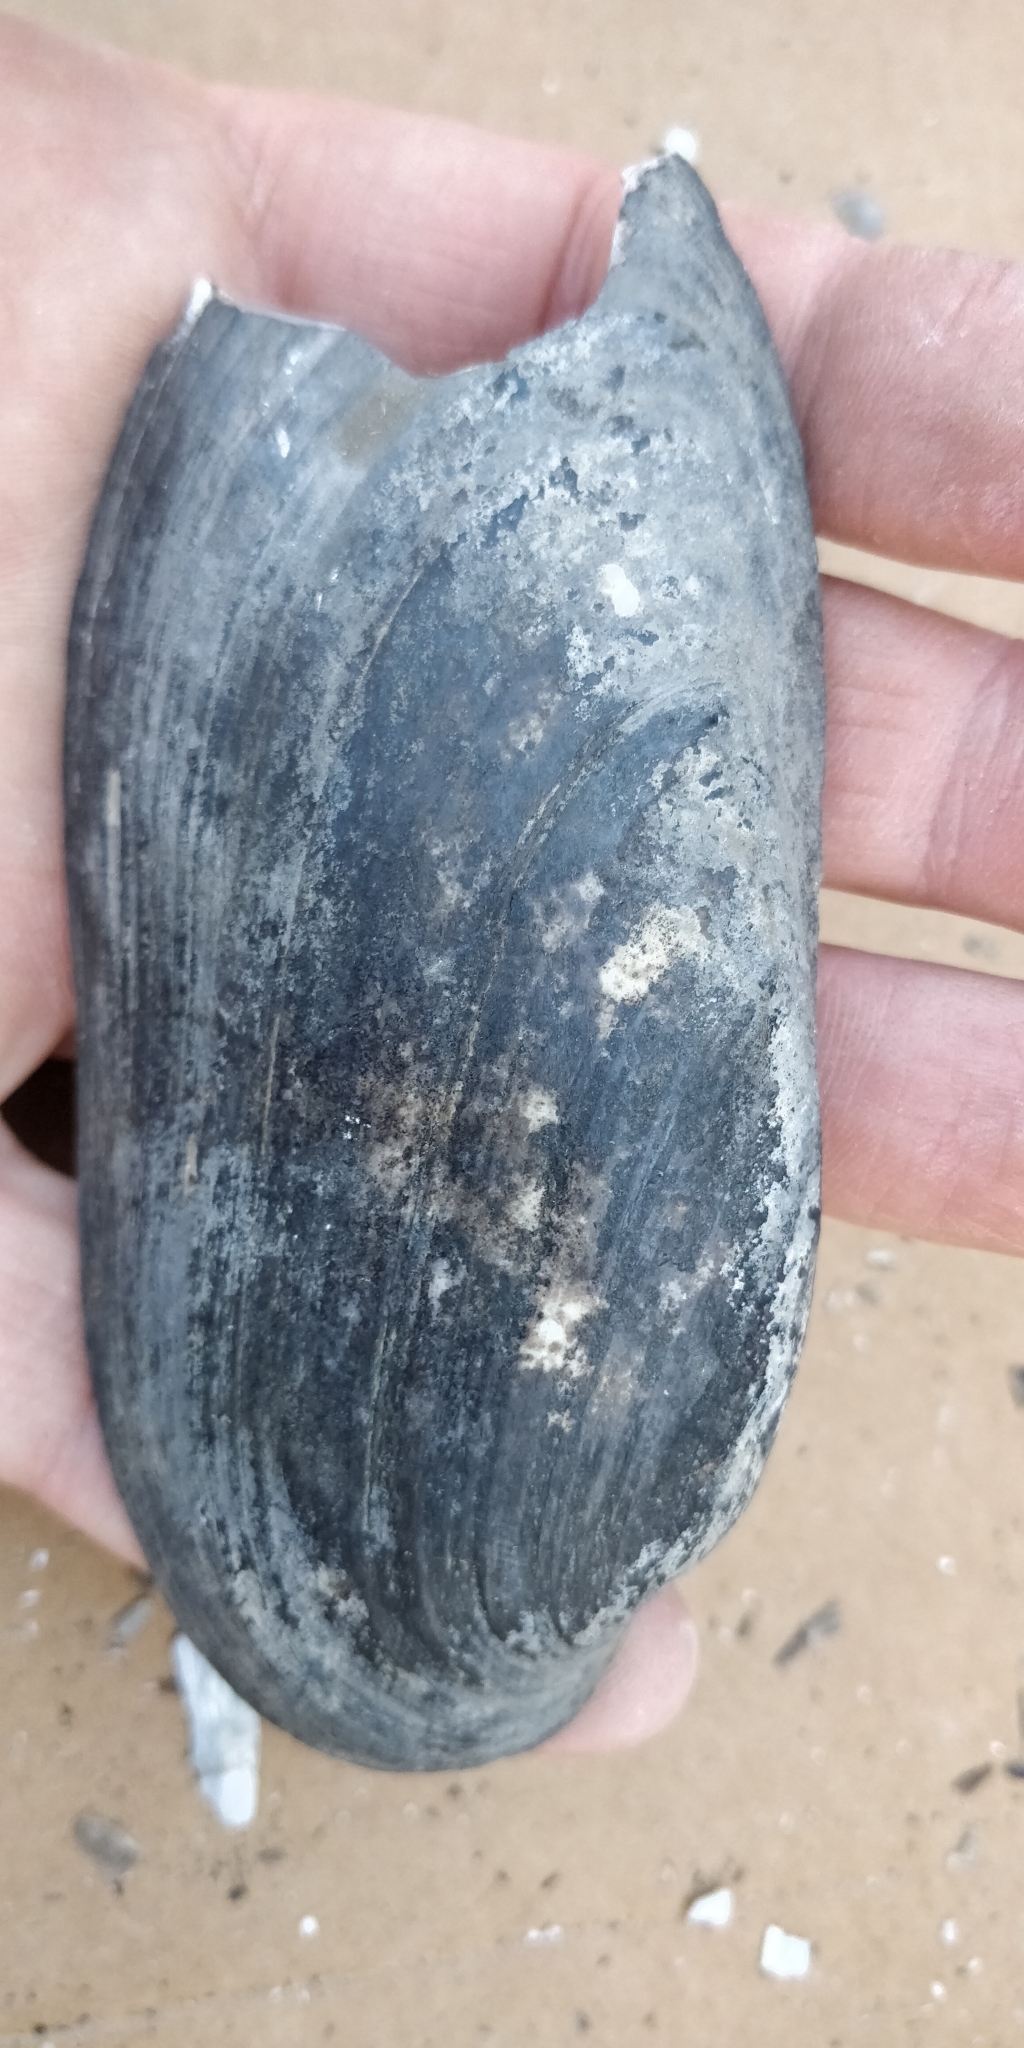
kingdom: Animalia
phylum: Mollusca
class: Bivalvia
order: Unionida
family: Unionidae
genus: Ligumia
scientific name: Ligumia recta
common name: Black sandshell
